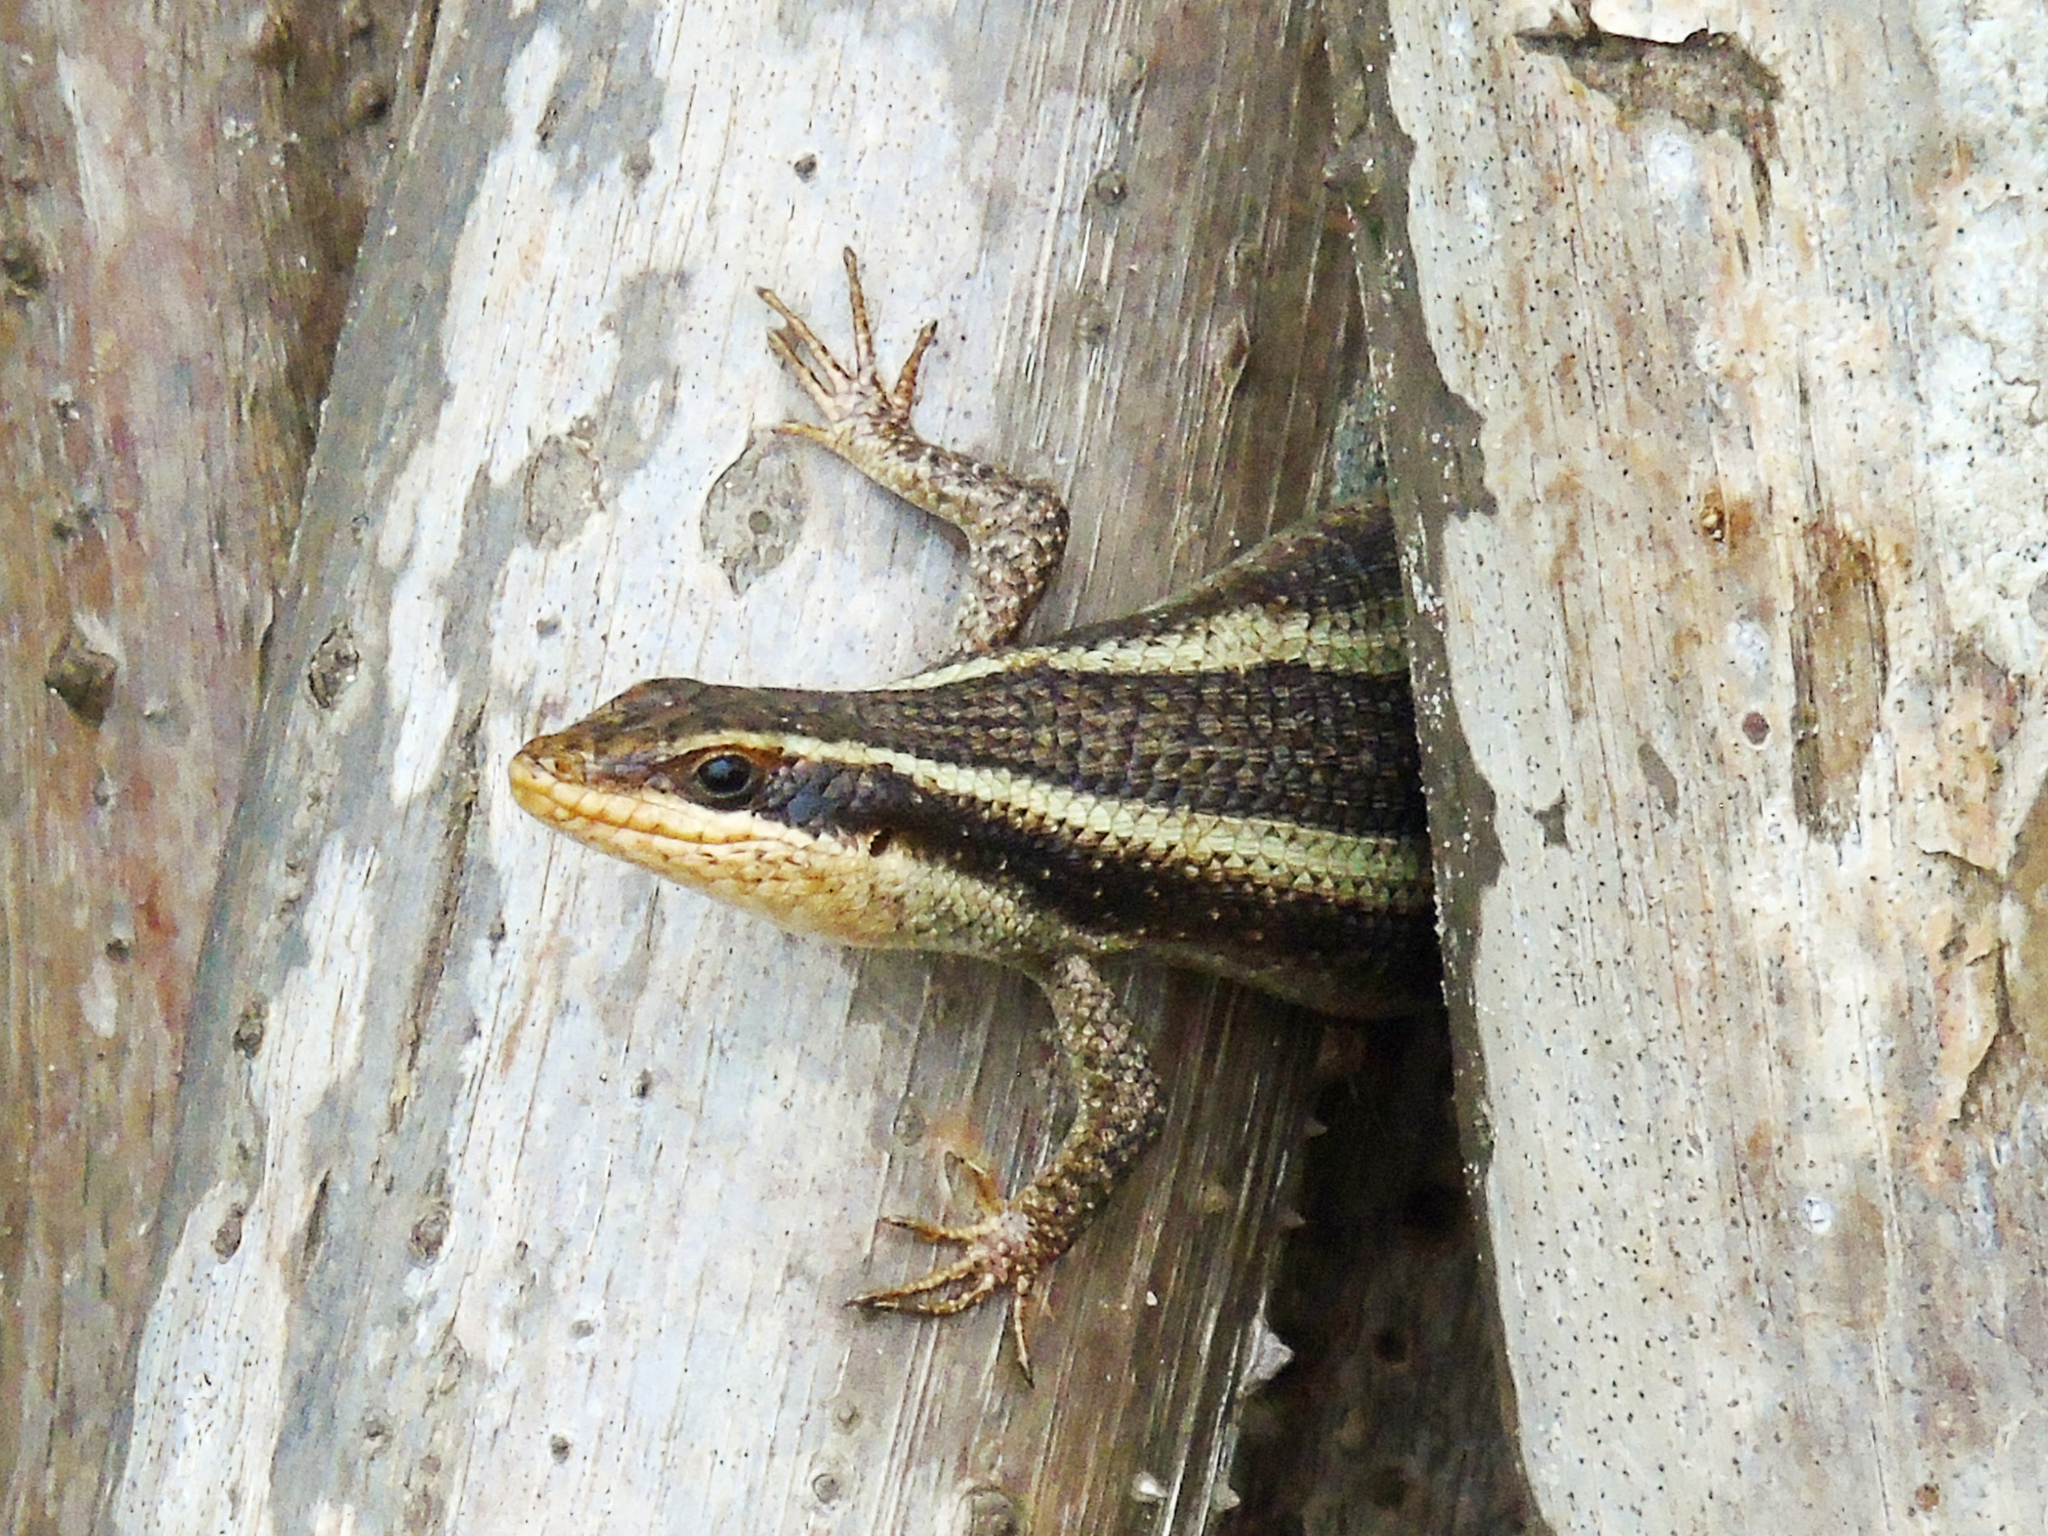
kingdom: Animalia
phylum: Chordata
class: Squamata
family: Scincidae
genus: Trachylepis
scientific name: Trachylepis striata
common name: African striped mabuya
